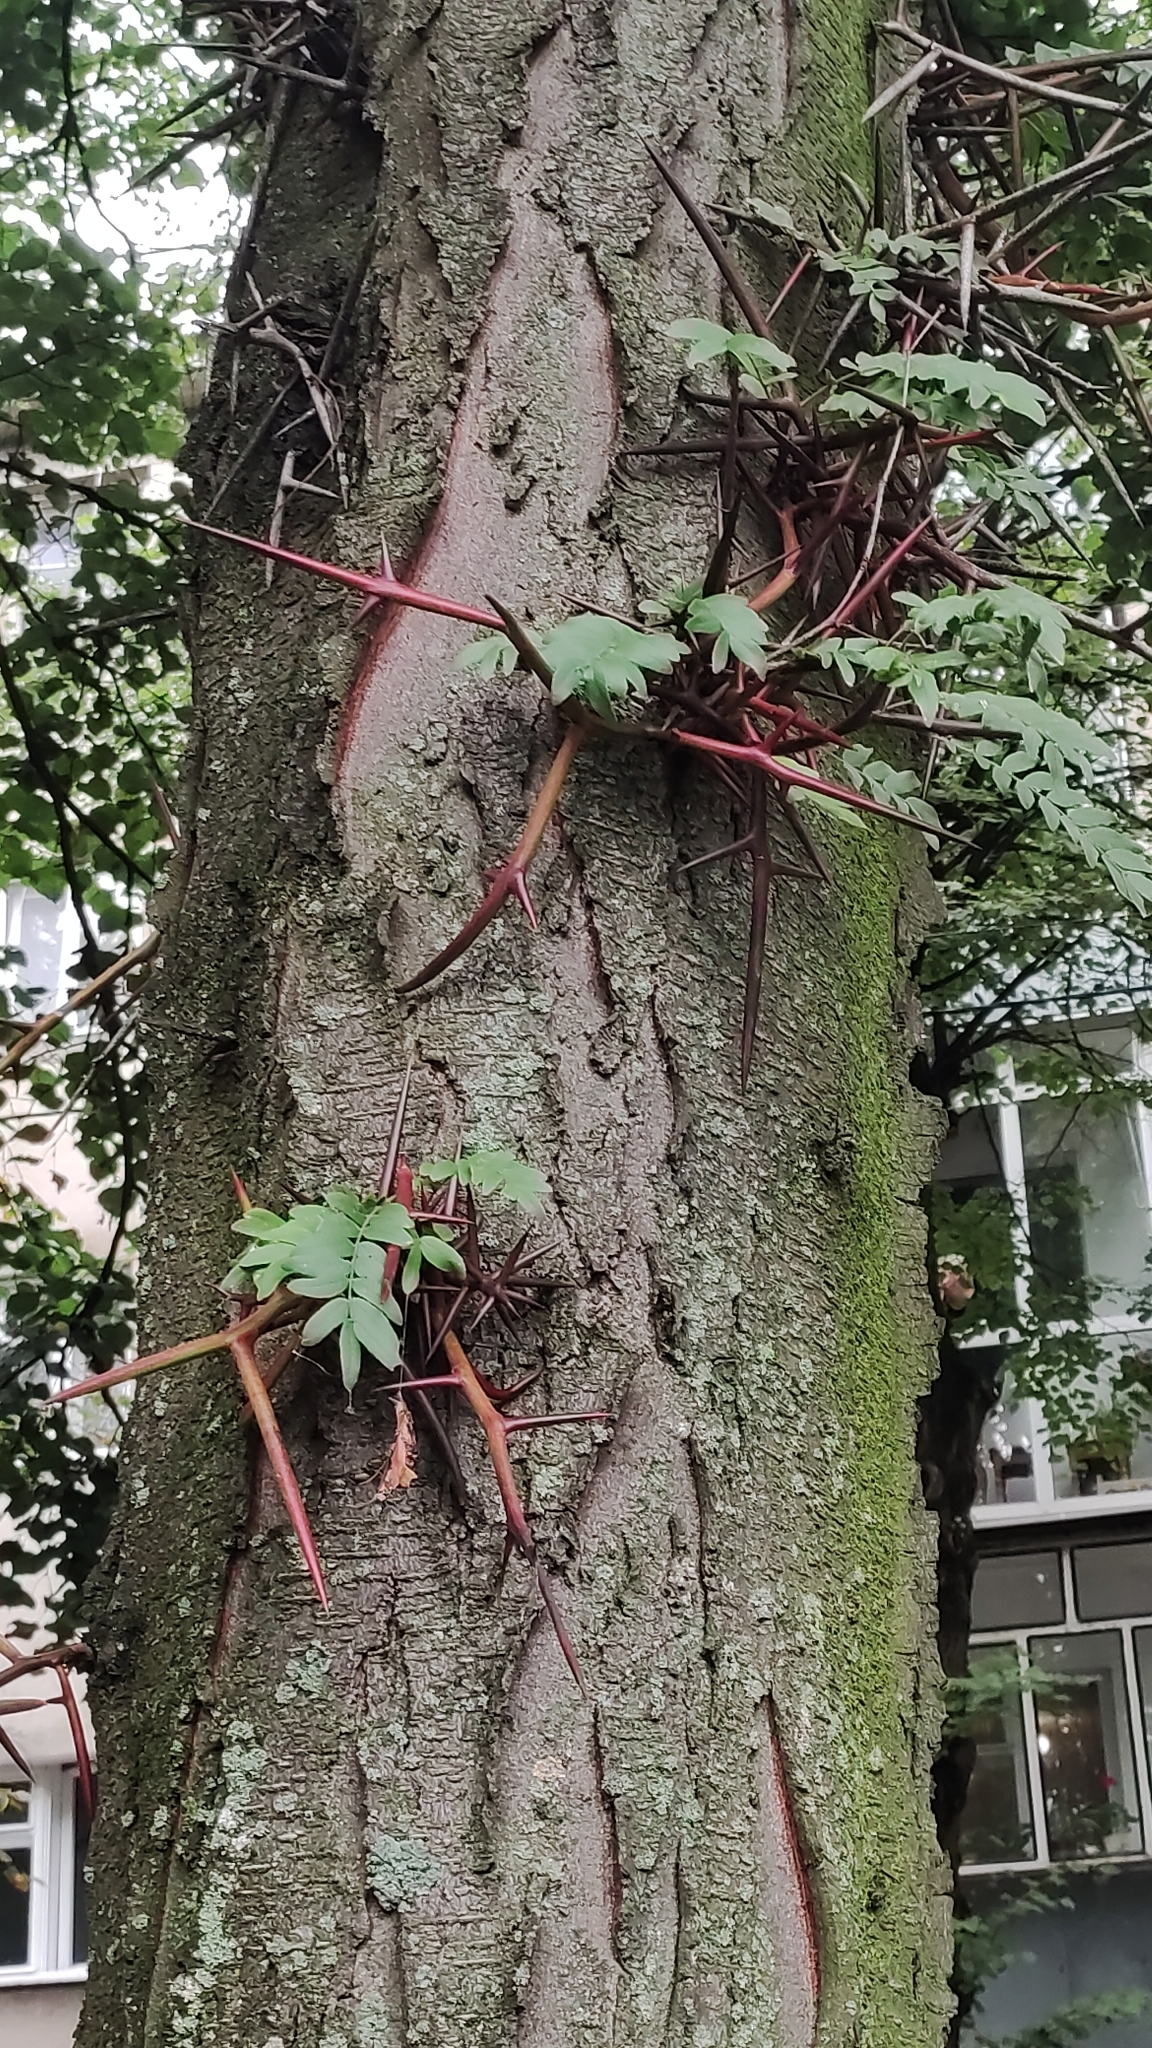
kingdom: Plantae
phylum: Tracheophyta
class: Magnoliopsida
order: Fabales
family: Fabaceae
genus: Gleditsia
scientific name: Gleditsia triacanthos
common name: Common honeylocust
